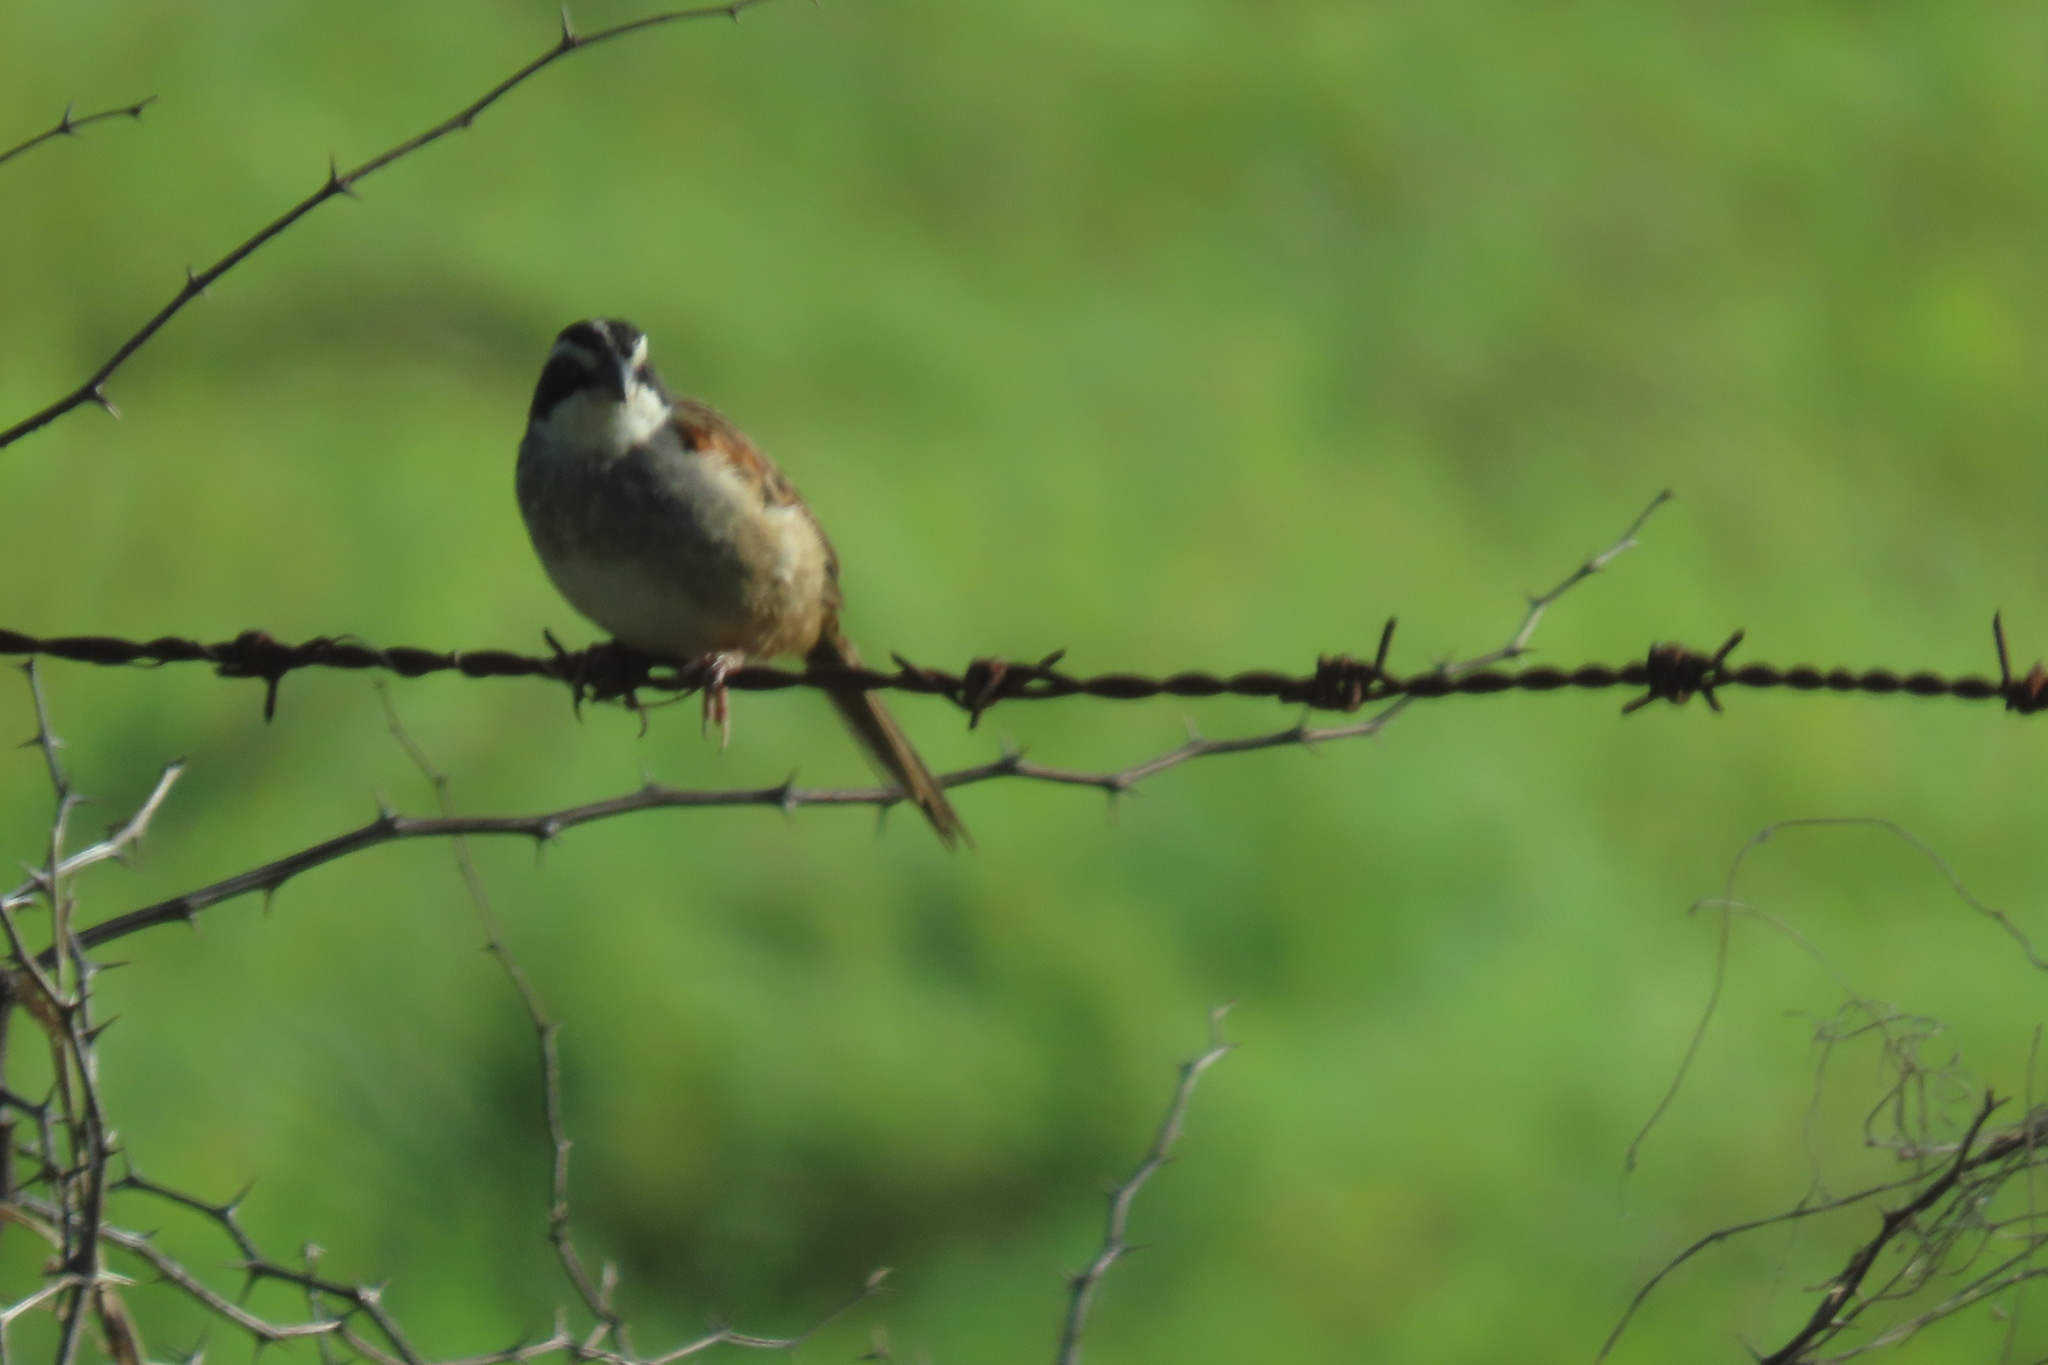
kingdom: Animalia
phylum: Chordata
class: Aves
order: Passeriformes
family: Passerellidae
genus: Peucaea
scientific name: Peucaea ruficauda
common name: Stripe-headed sparrow
